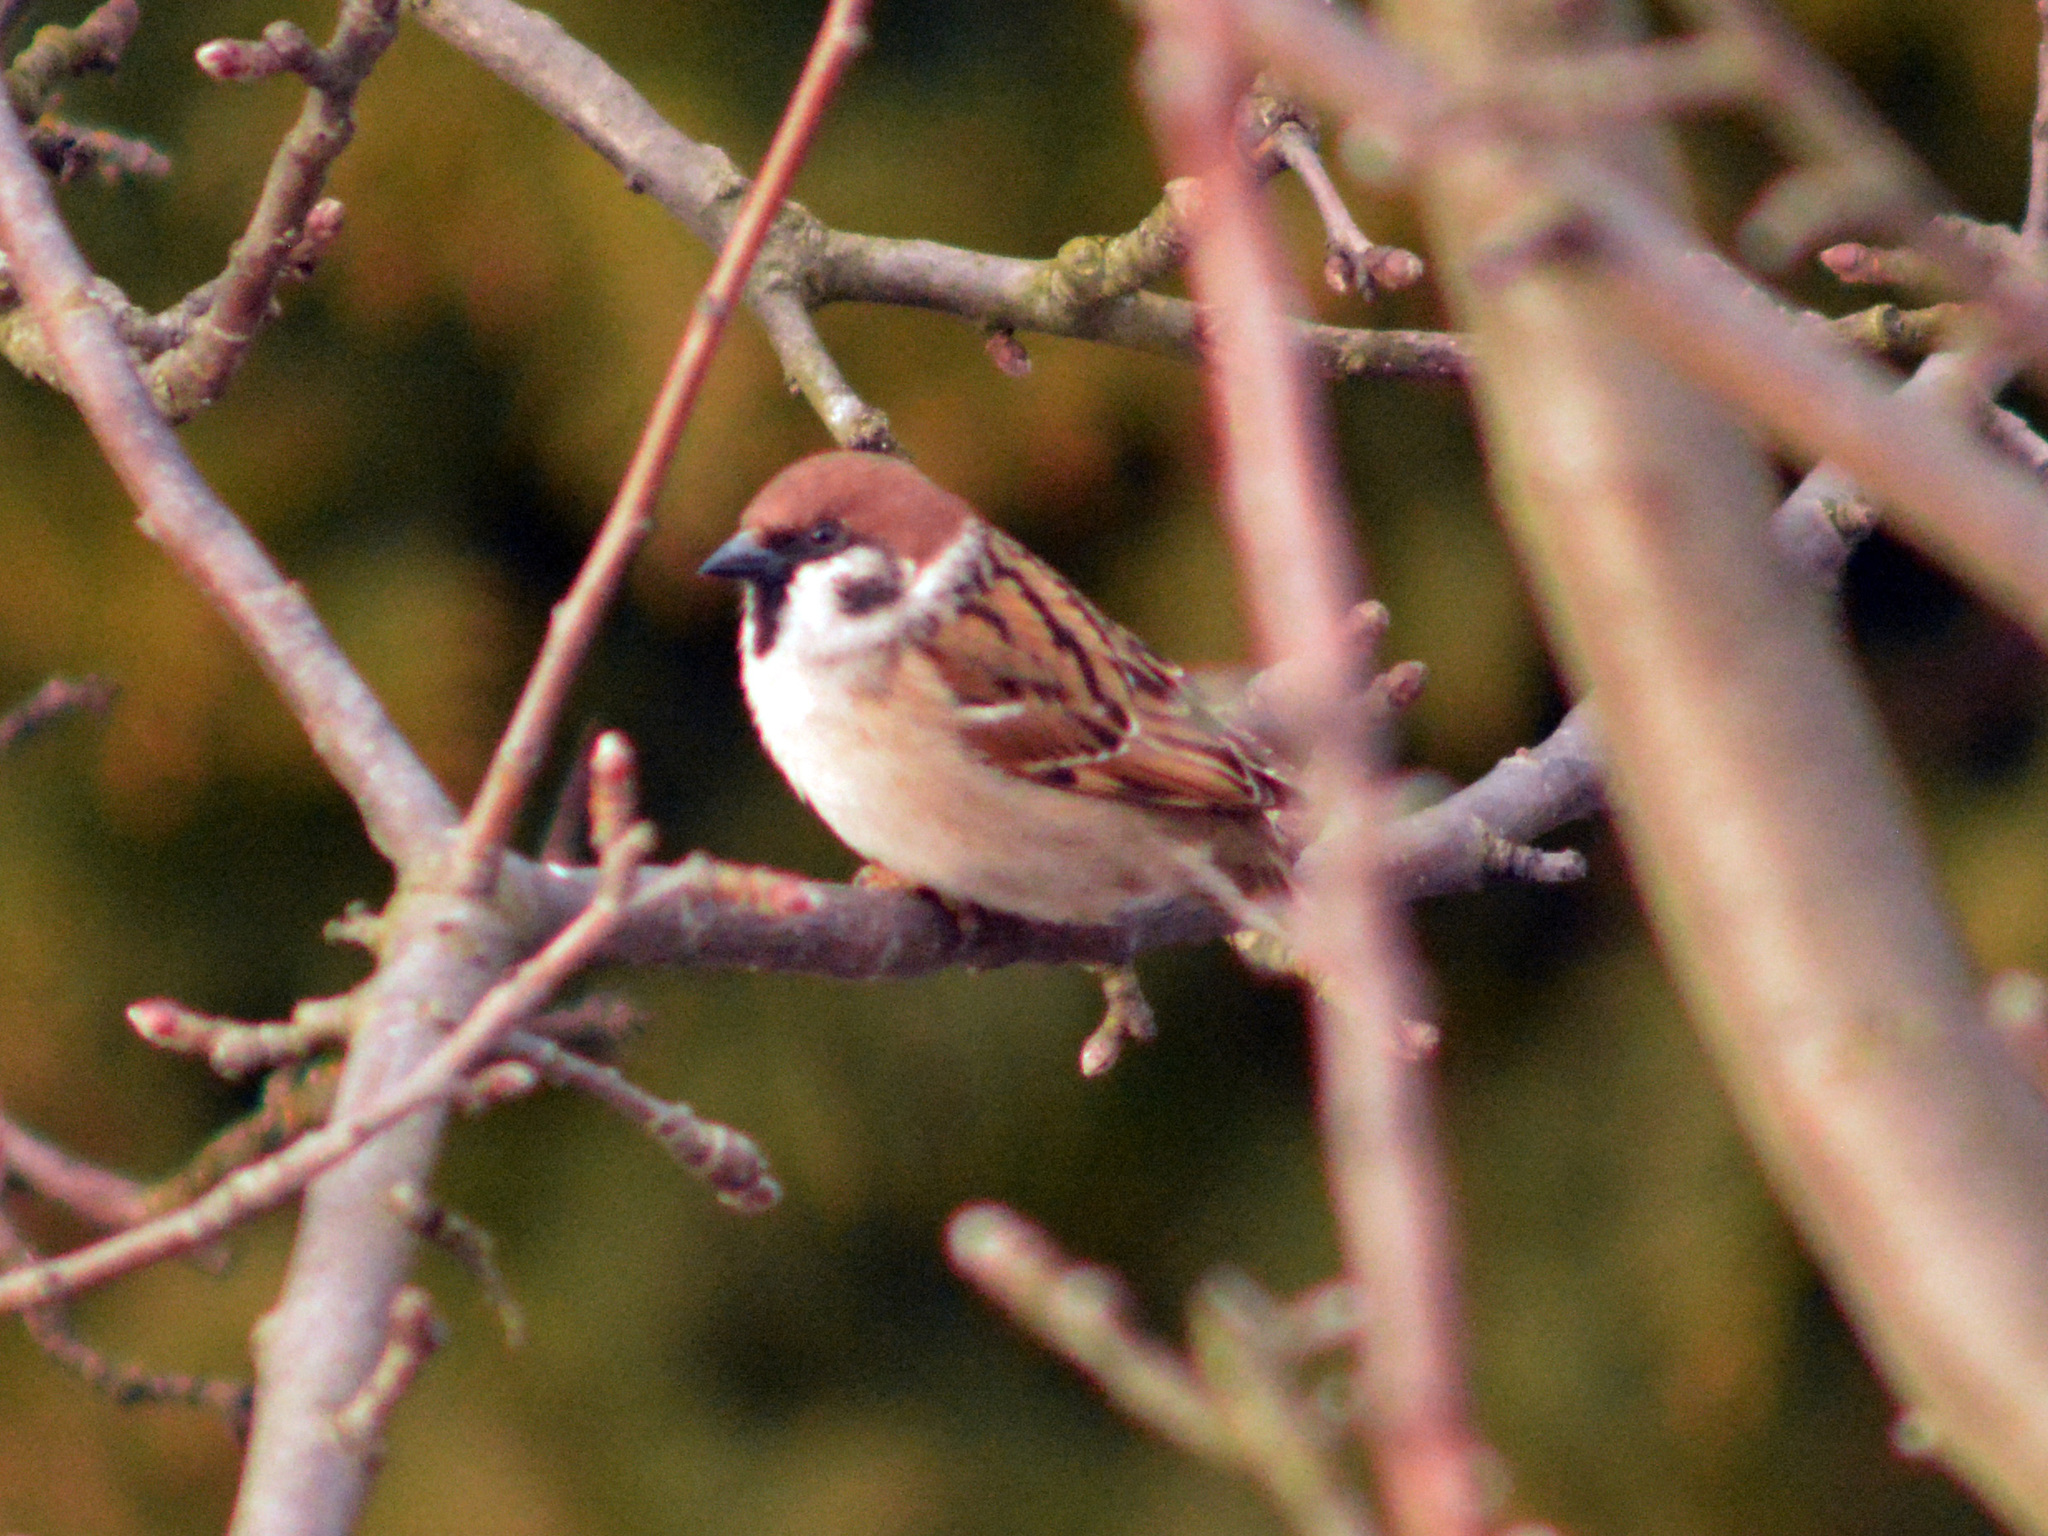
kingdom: Animalia
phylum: Chordata
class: Aves
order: Passeriformes
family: Passeridae
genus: Passer
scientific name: Passer montanus
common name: Eurasian tree sparrow
